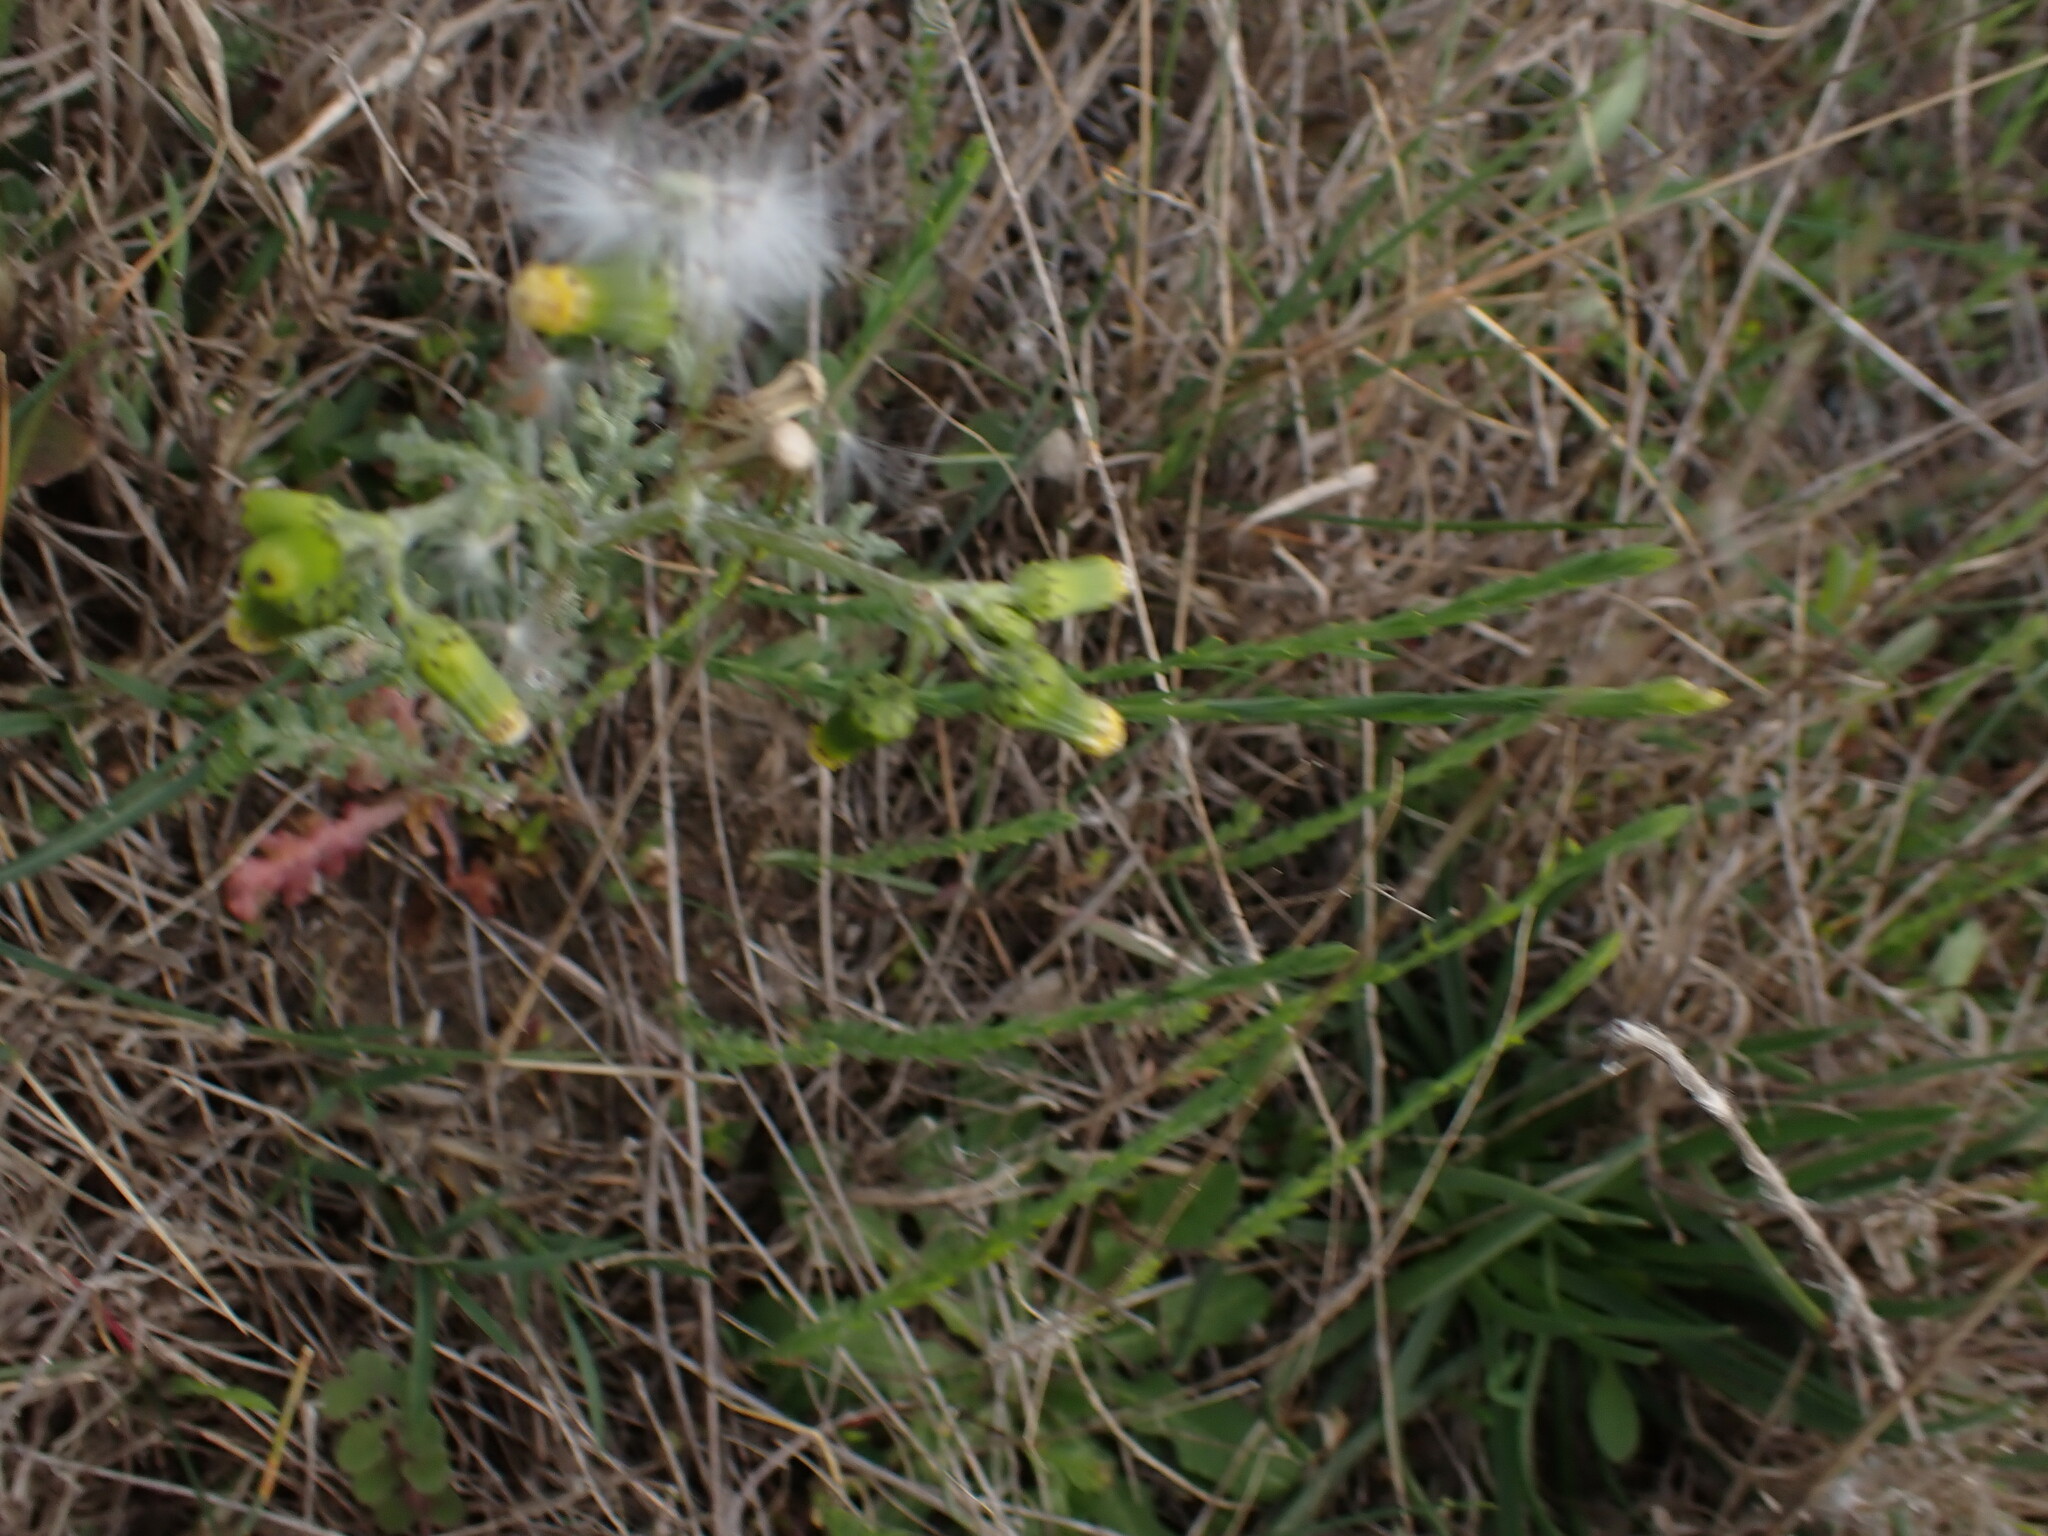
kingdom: Plantae
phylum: Tracheophyta
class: Magnoliopsida
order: Asterales
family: Asteraceae
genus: Senecio
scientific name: Senecio vulgaris
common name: Old-man-in-the-spring
